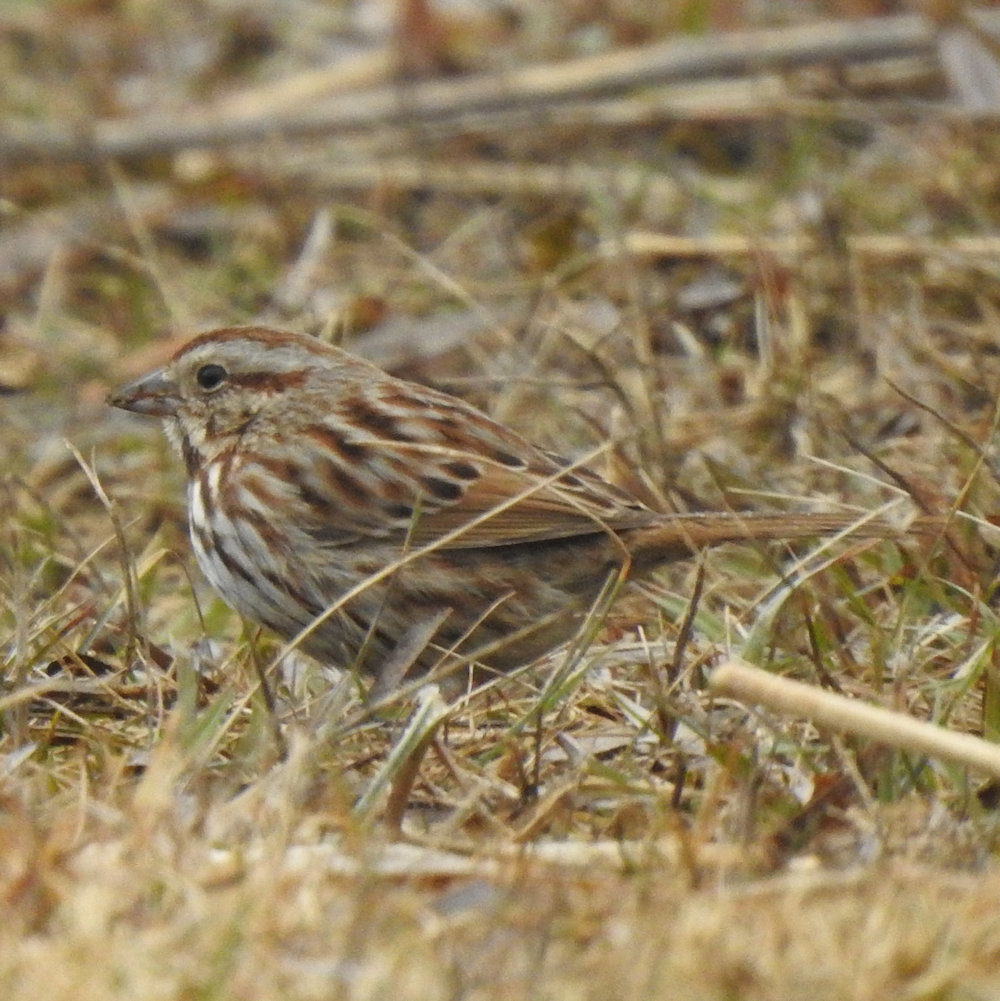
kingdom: Animalia
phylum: Chordata
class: Aves
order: Passeriformes
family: Passerellidae
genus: Melospiza
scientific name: Melospiza melodia
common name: Song sparrow
